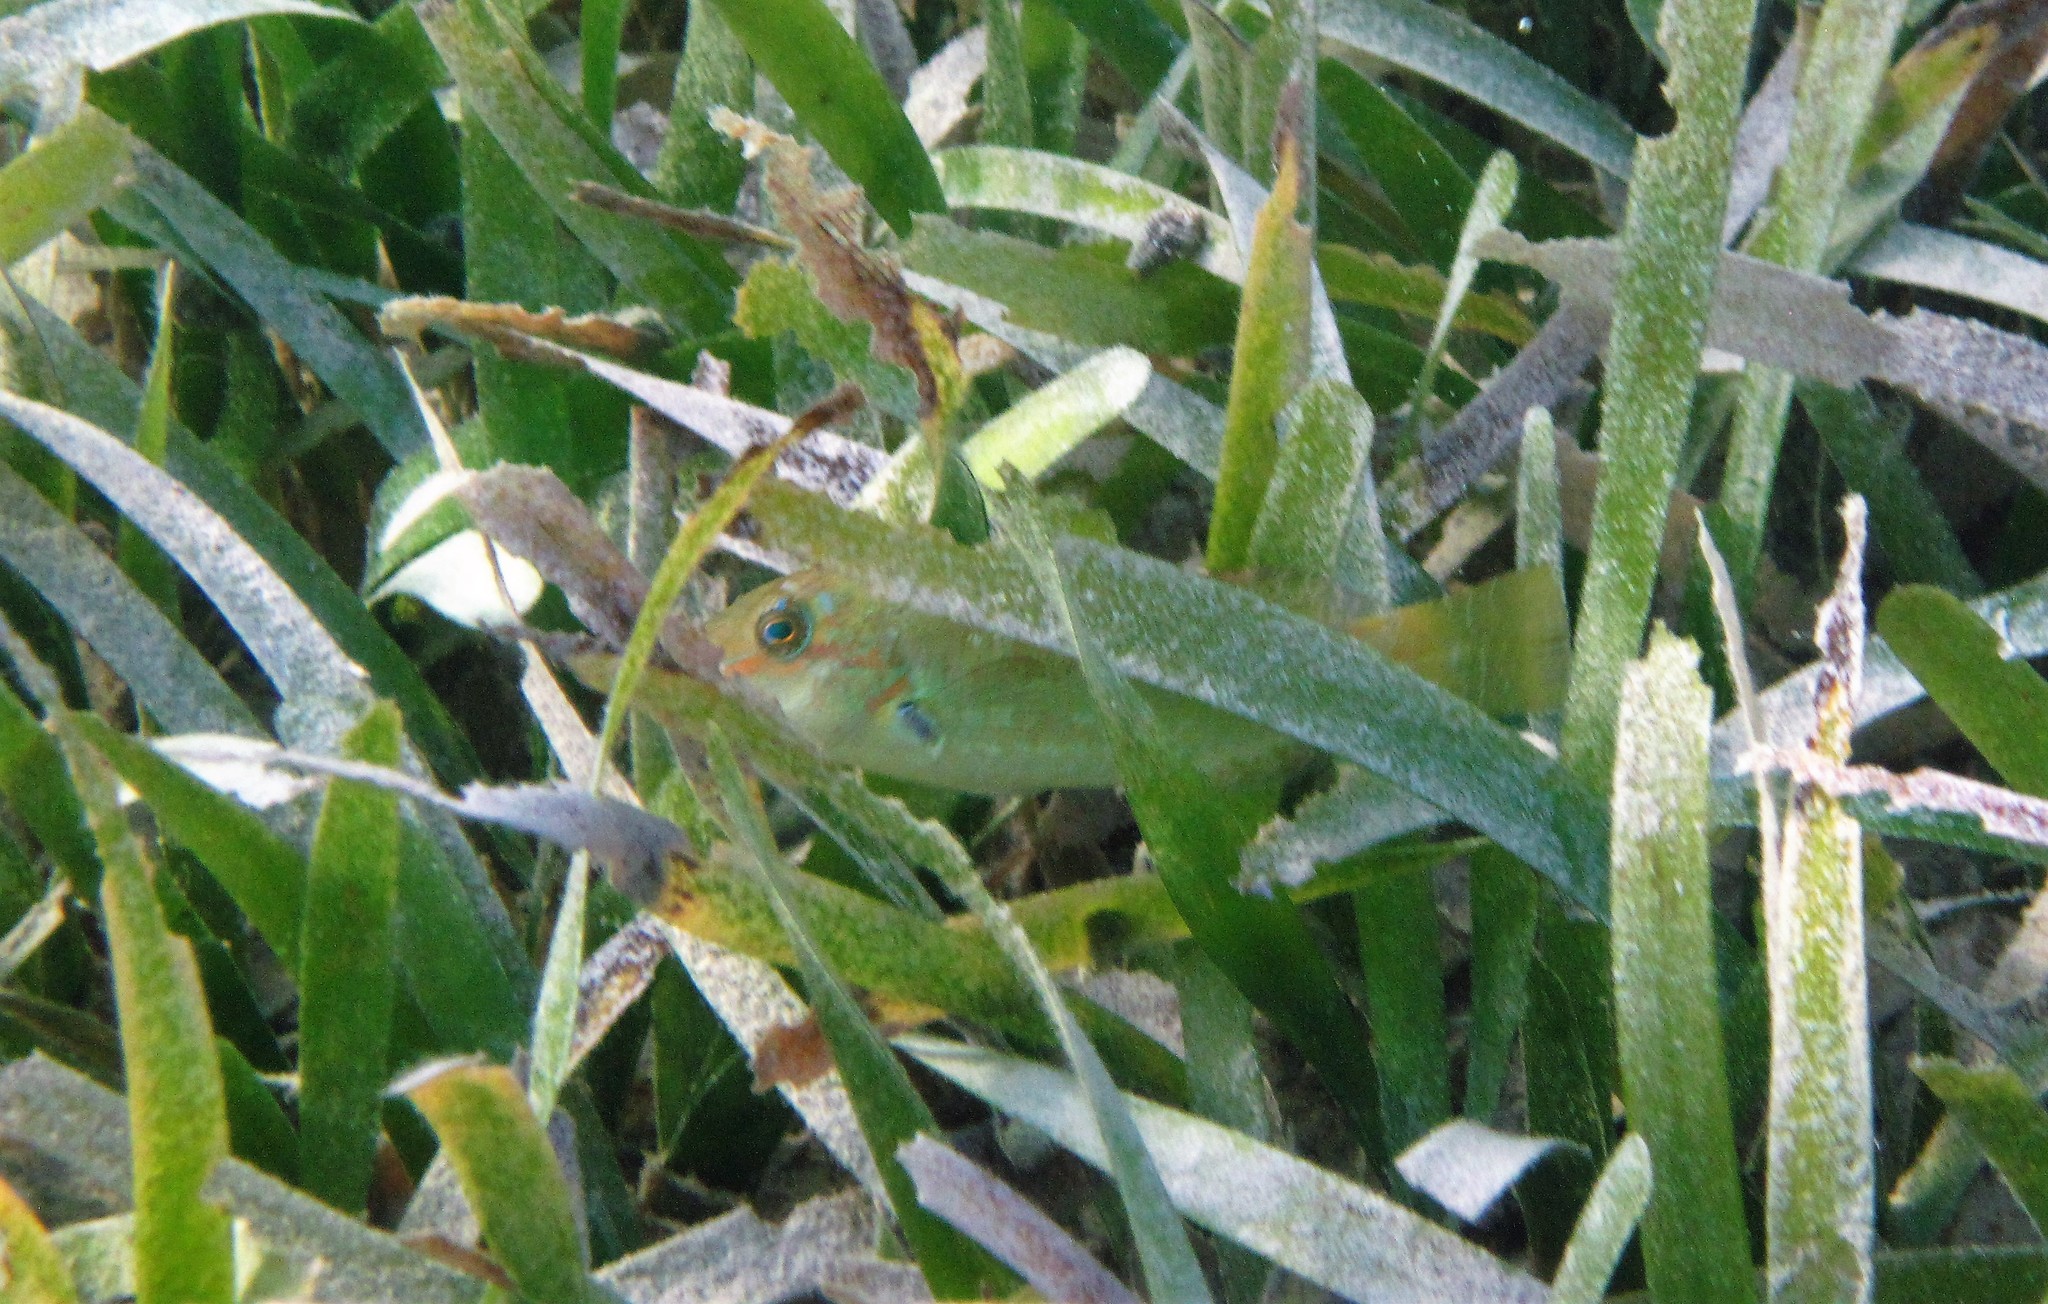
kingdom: Animalia
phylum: Chordata
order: Perciformes
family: Scaridae
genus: Sparisoma
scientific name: Sparisoma radians
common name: Bucktooth parrotfish
